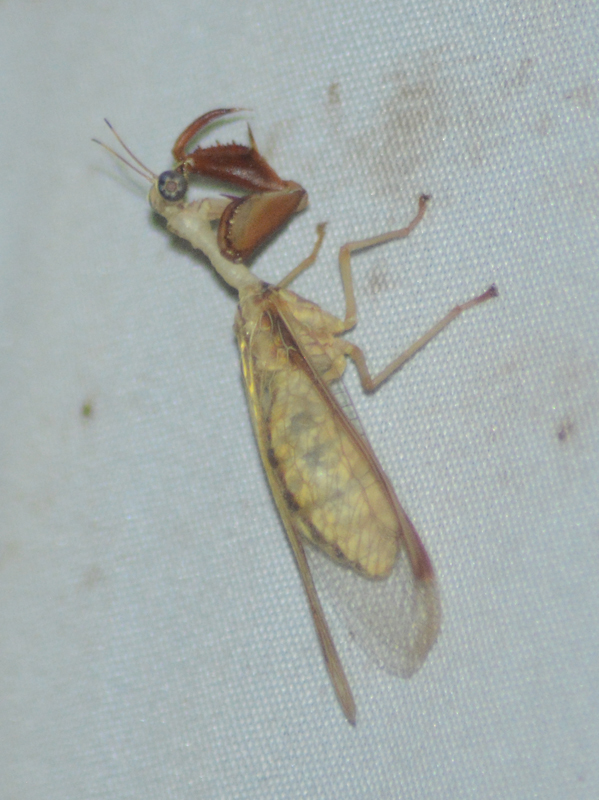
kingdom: Animalia
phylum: Arthropoda
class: Insecta
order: Neuroptera
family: Mantispidae
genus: Dicromantispa
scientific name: Dicromantispa interrupta
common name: Four-spotted mantidfly
